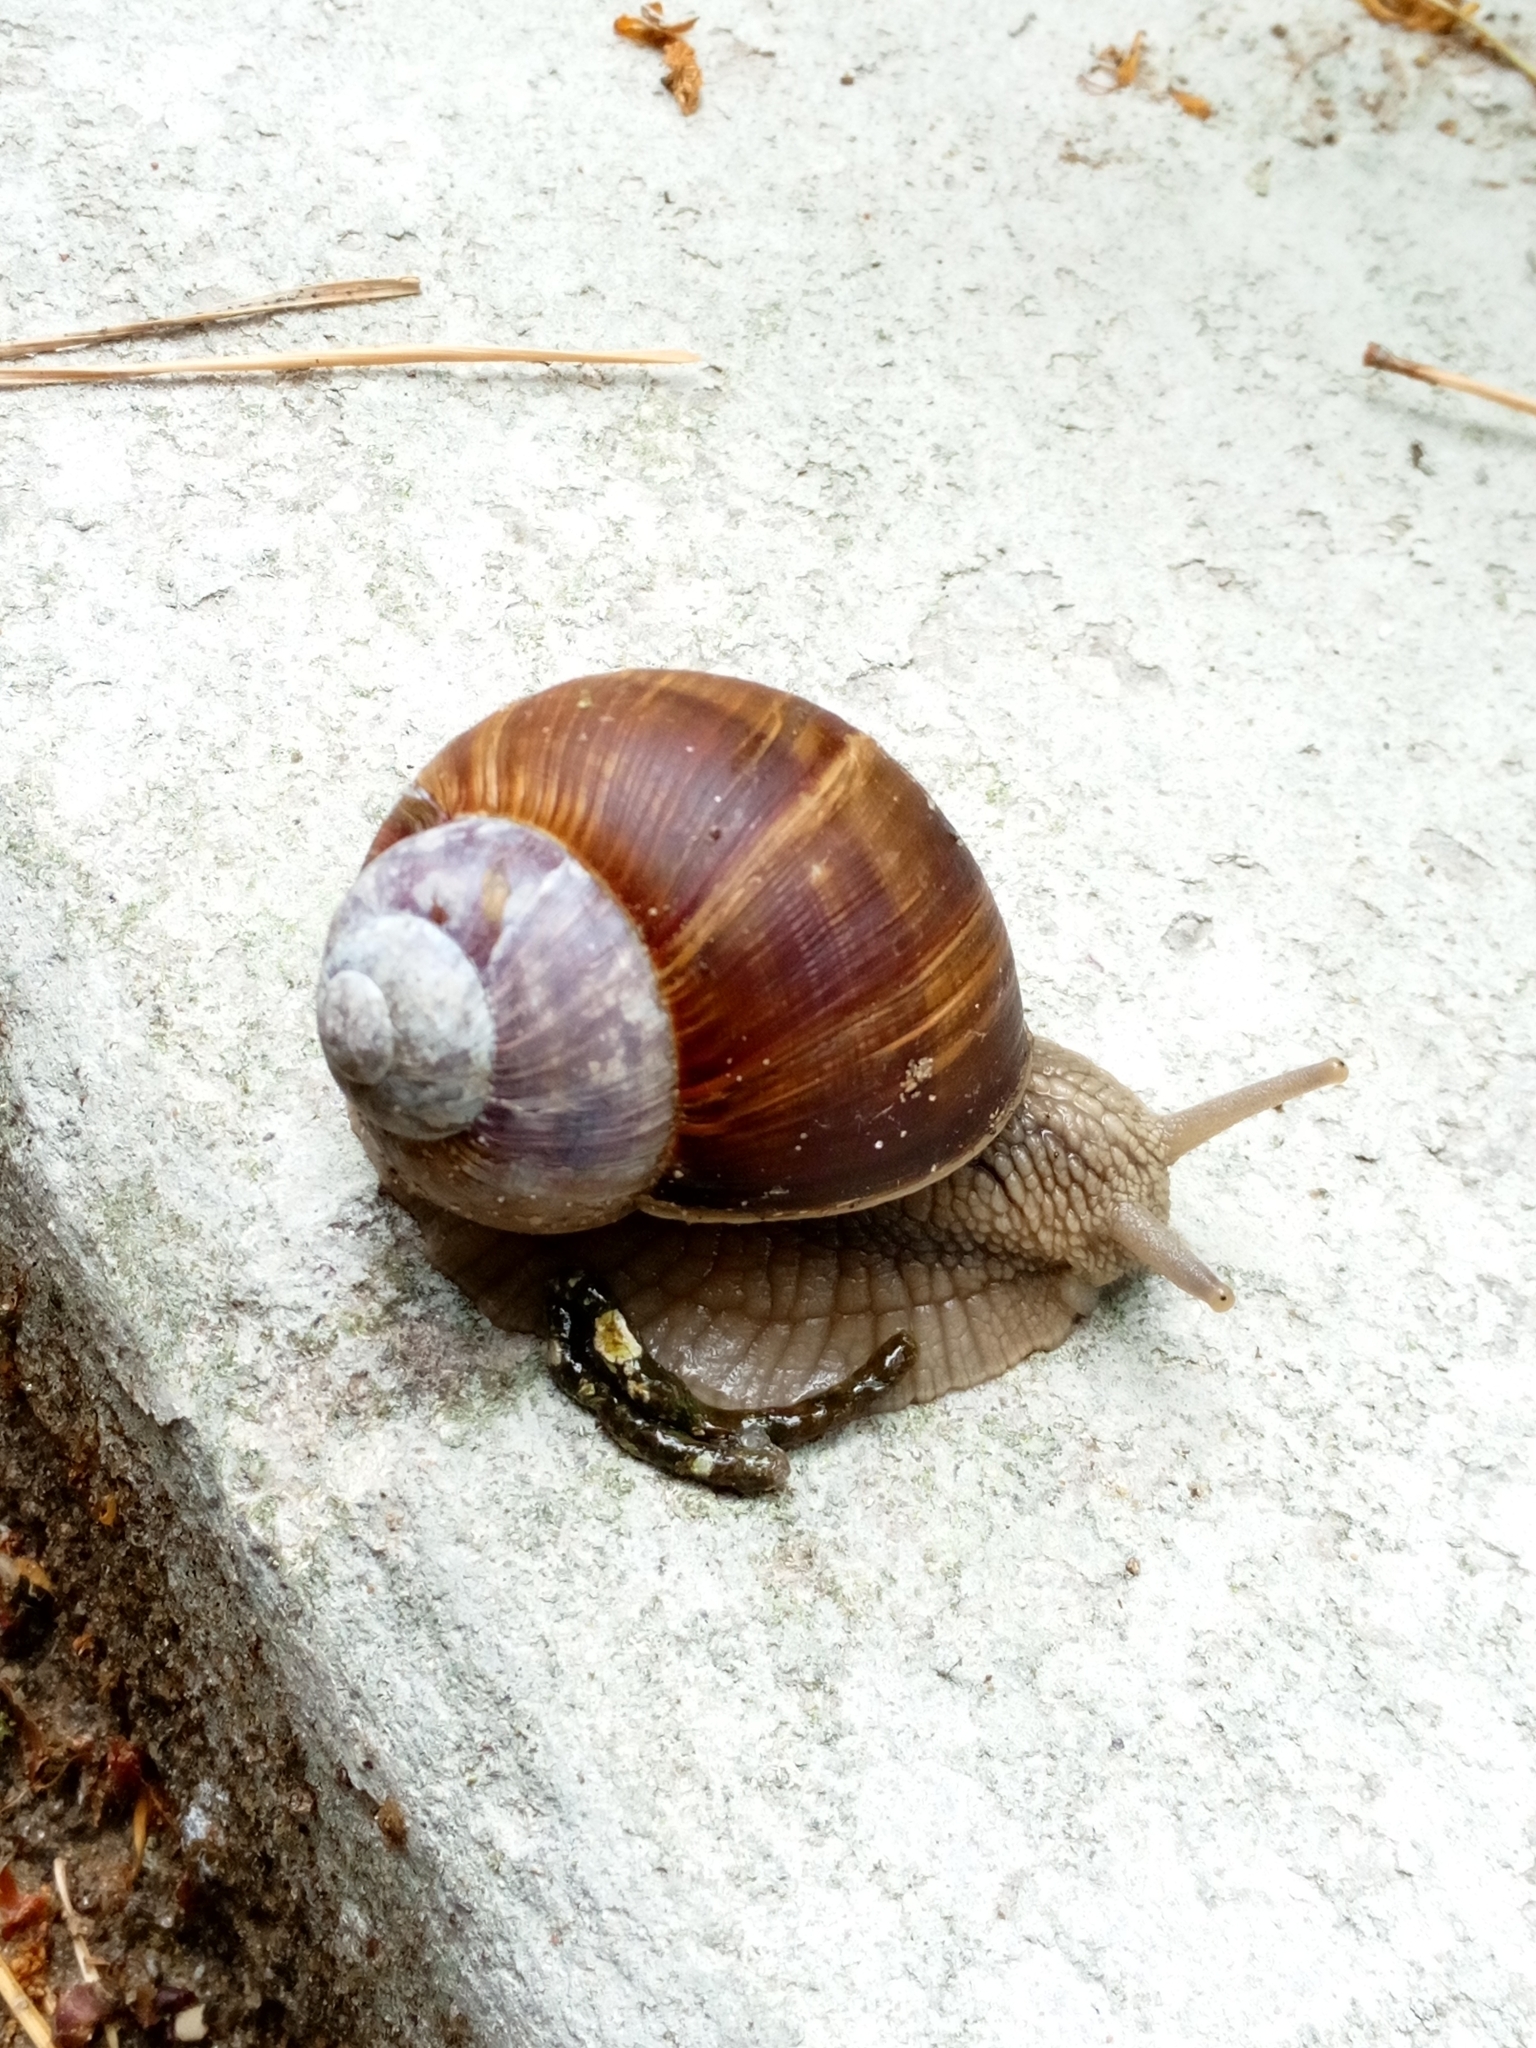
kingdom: Animalia
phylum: Mollusca
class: Gastropoda
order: Stylommatophora
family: Helicidae
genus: Helix
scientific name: Helix pomatia
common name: Roman snail
